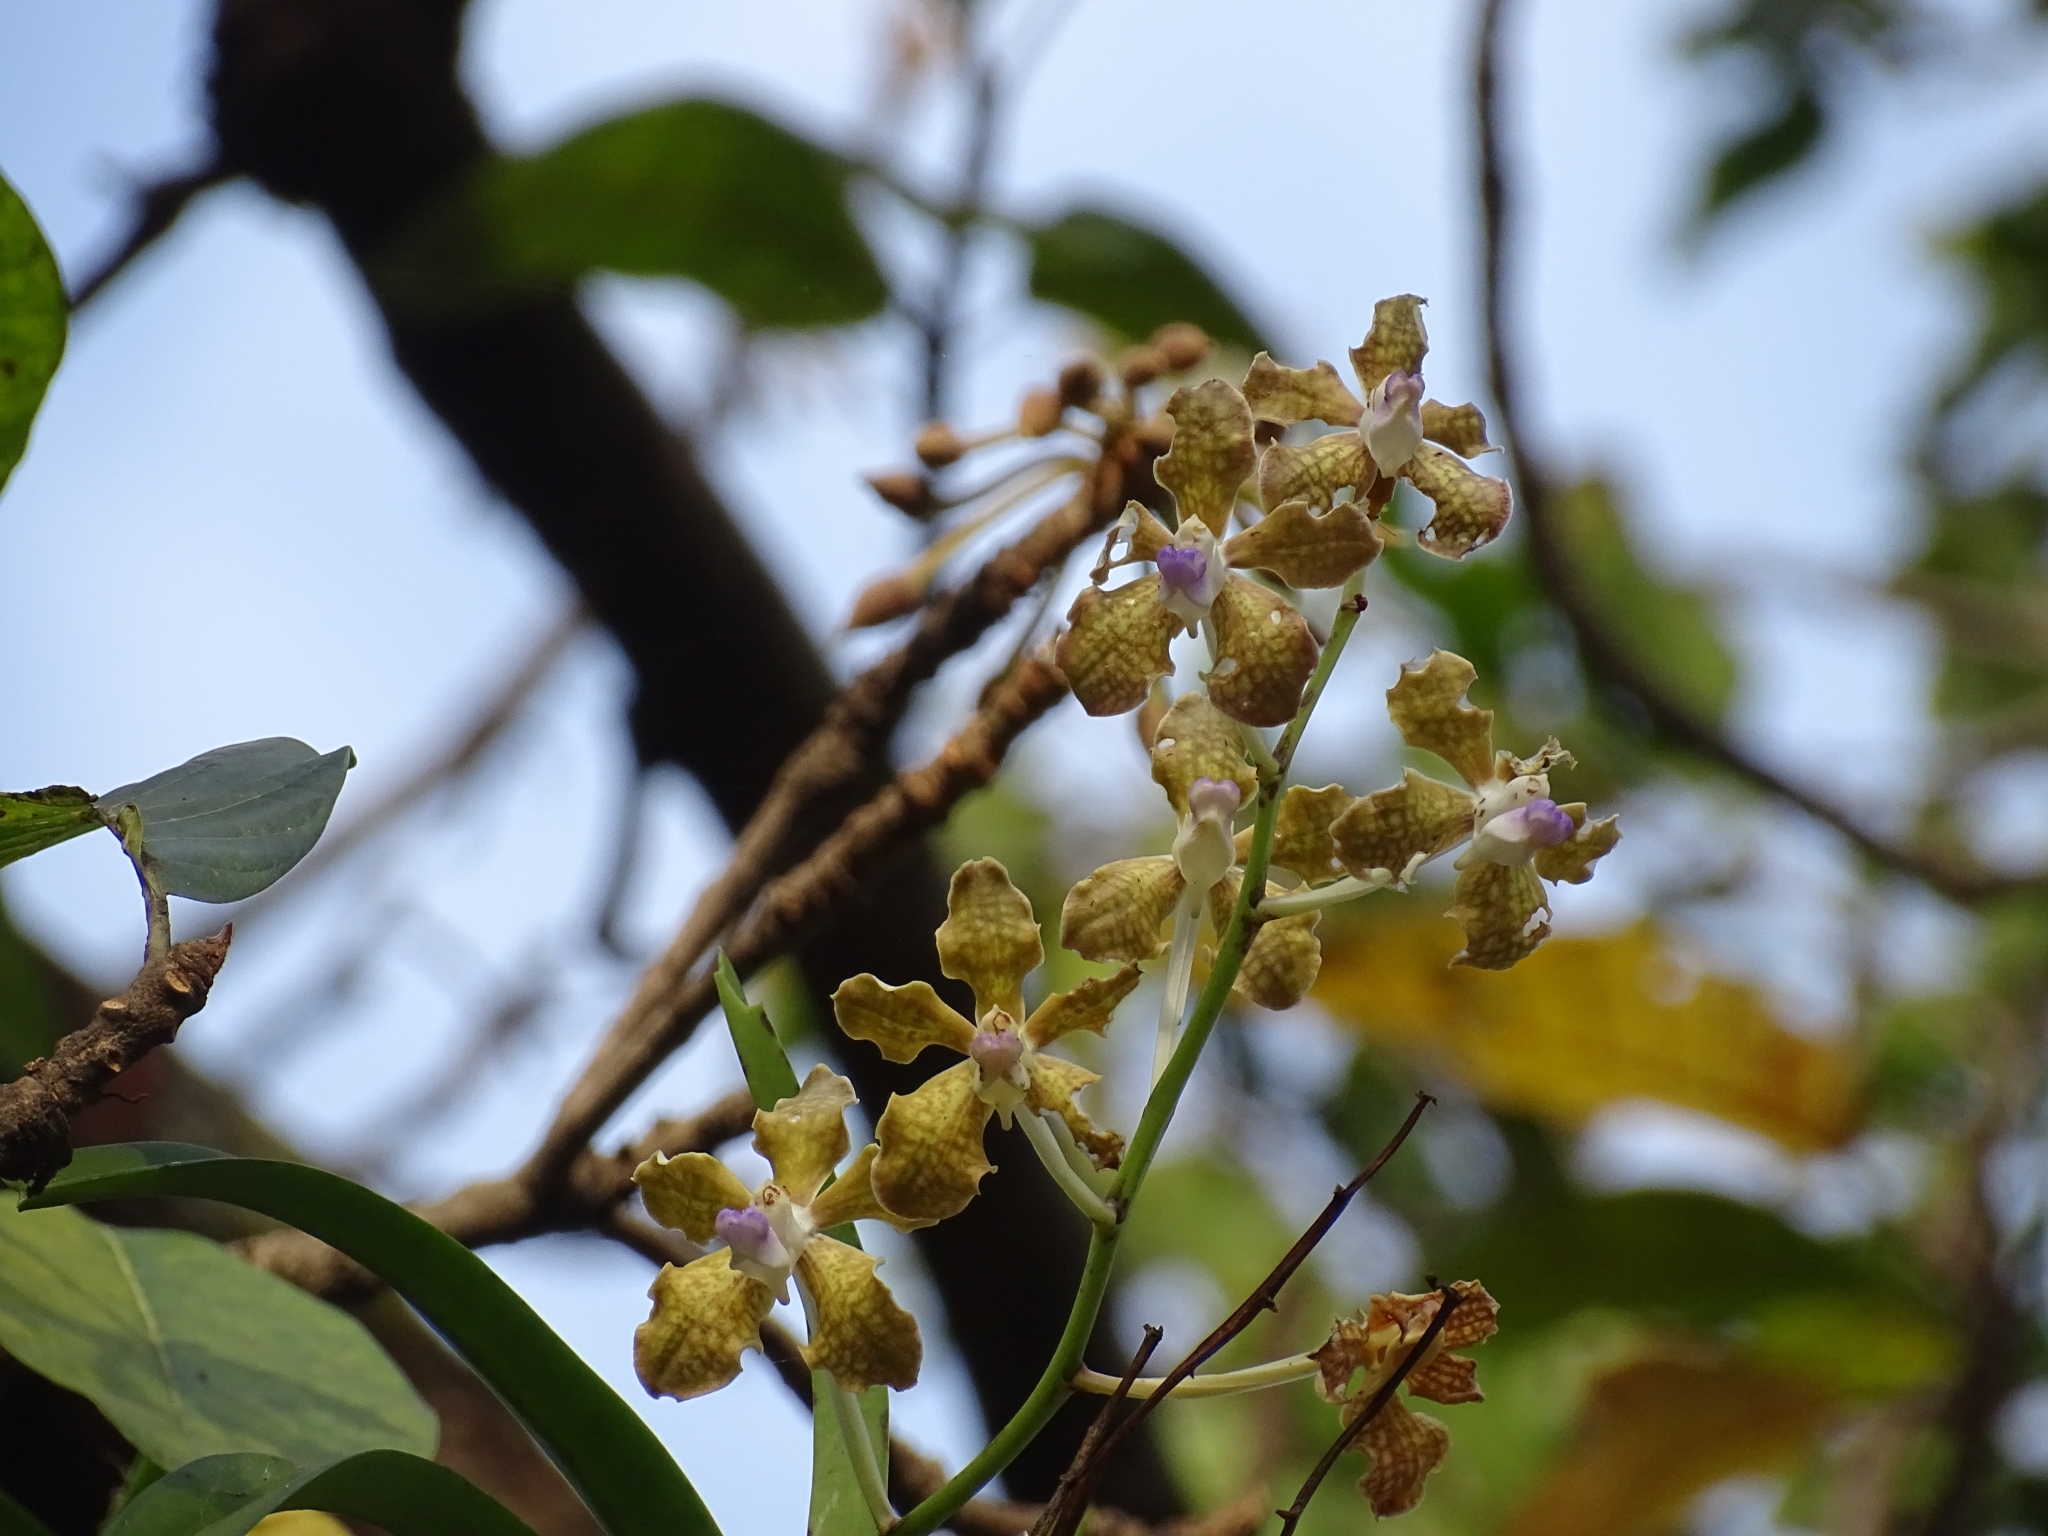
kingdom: Plantae
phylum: Tracheophyta
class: Liliopsida
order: Asparagales
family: Orchidaceae
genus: Vanda
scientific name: Vanda tessellata
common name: Grey orchid
